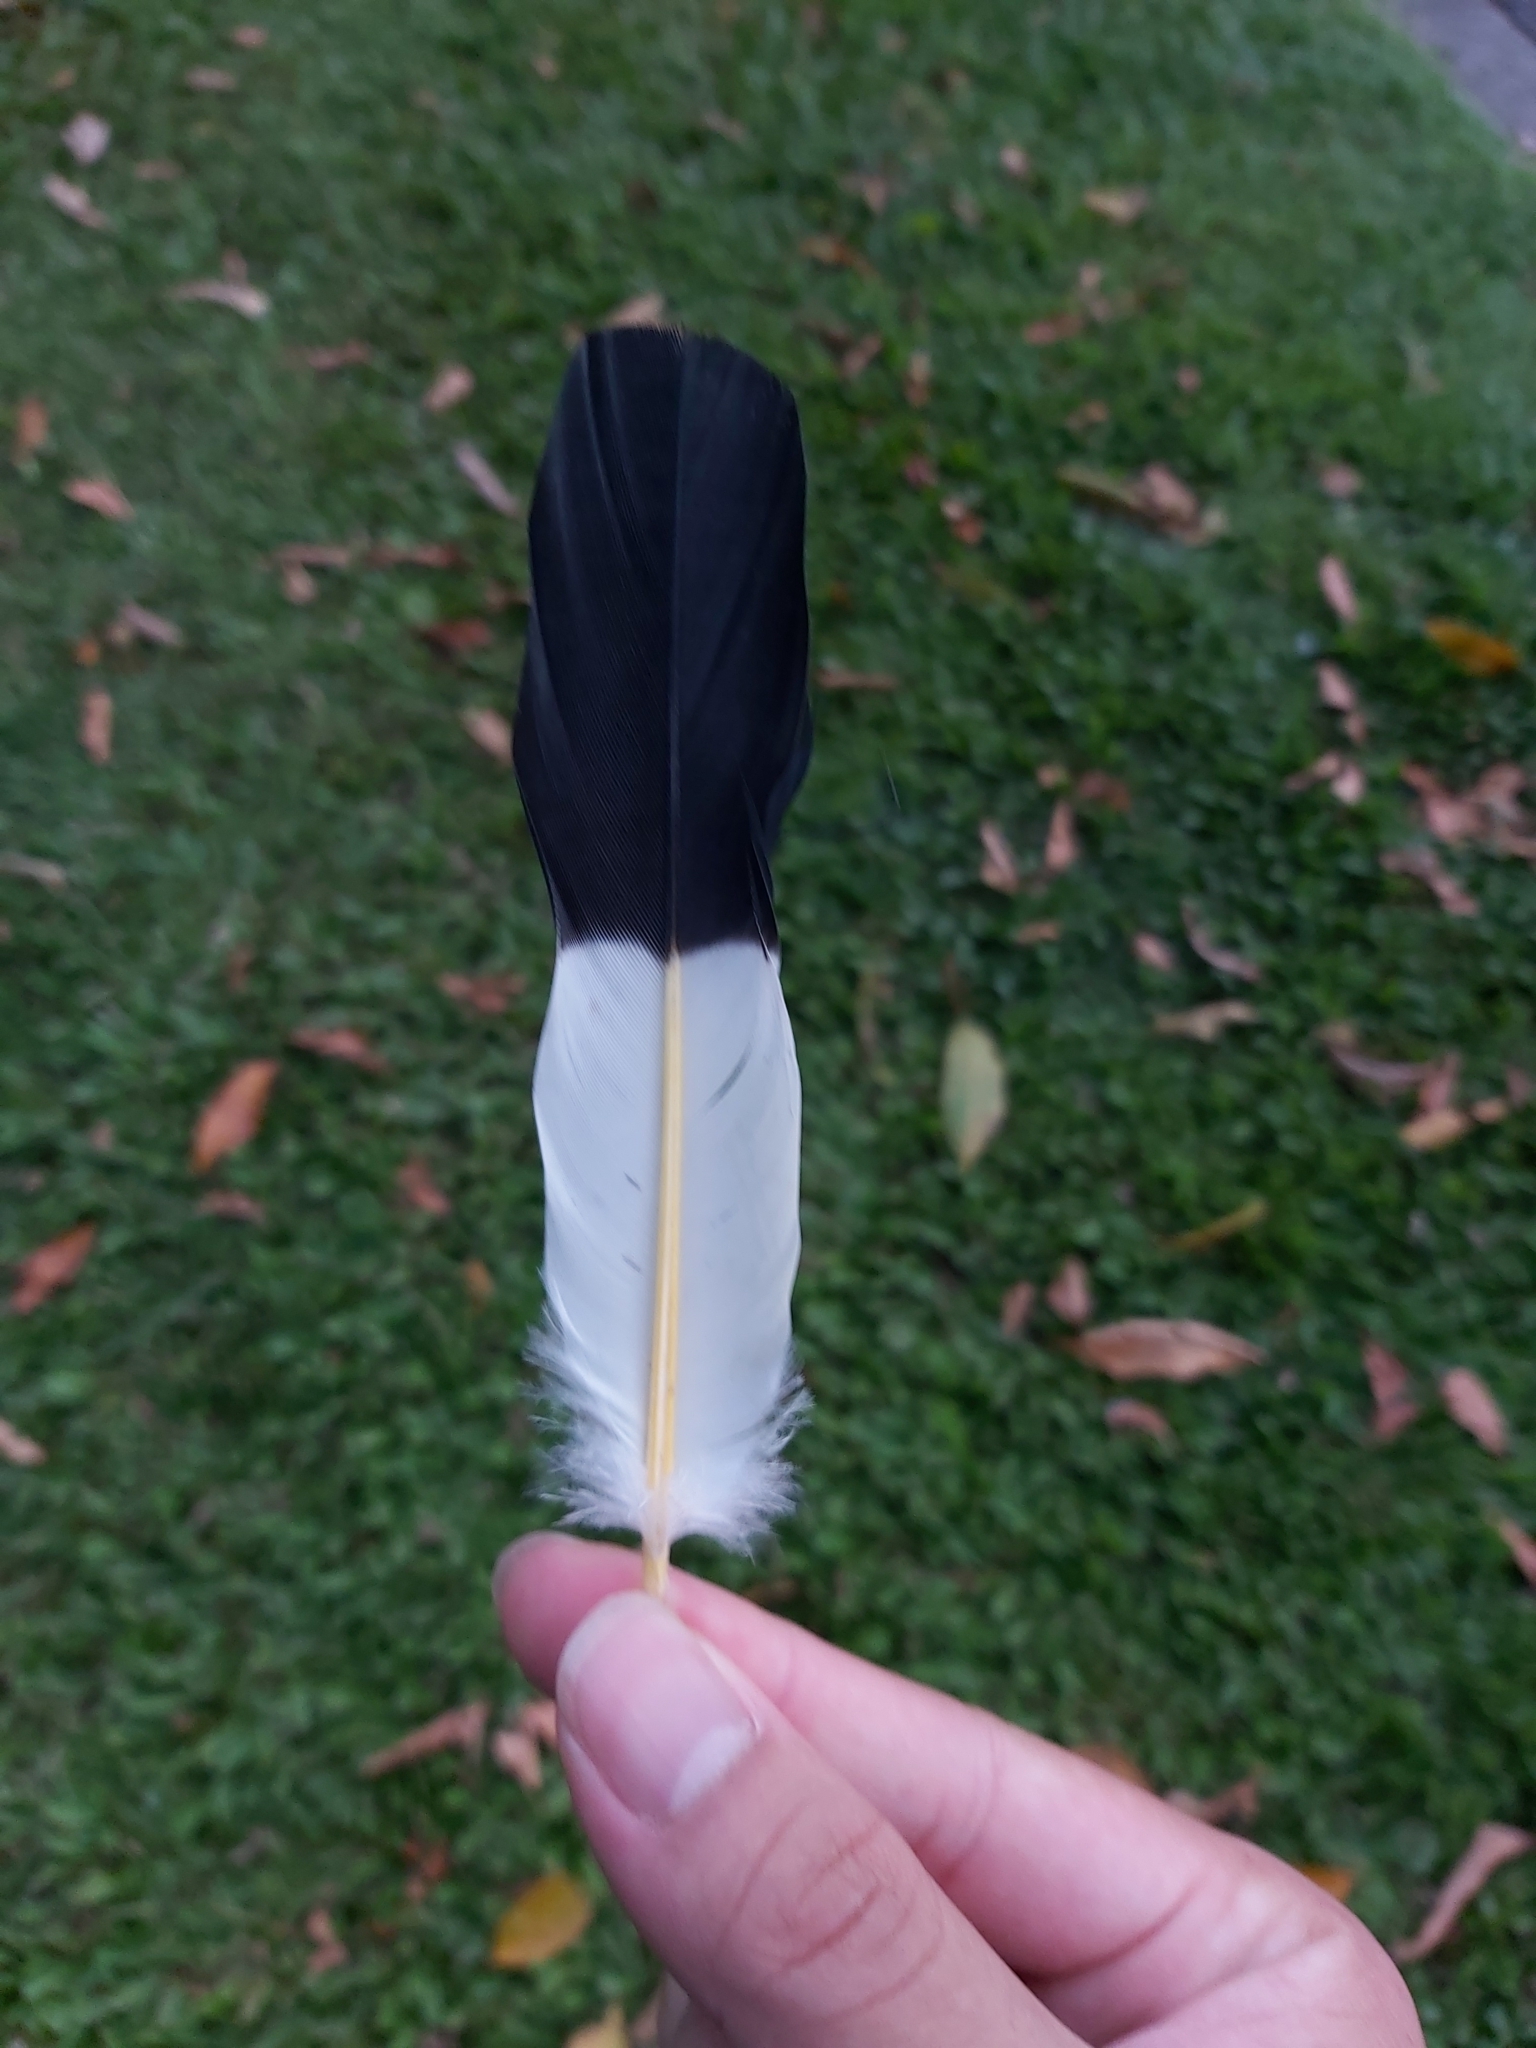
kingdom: Animalia
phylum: Chordata
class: Aves
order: Columbiformes
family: Columbidae
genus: Ducula
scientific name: Ducula spilorrhoa
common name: Torresian imperial pigeon
